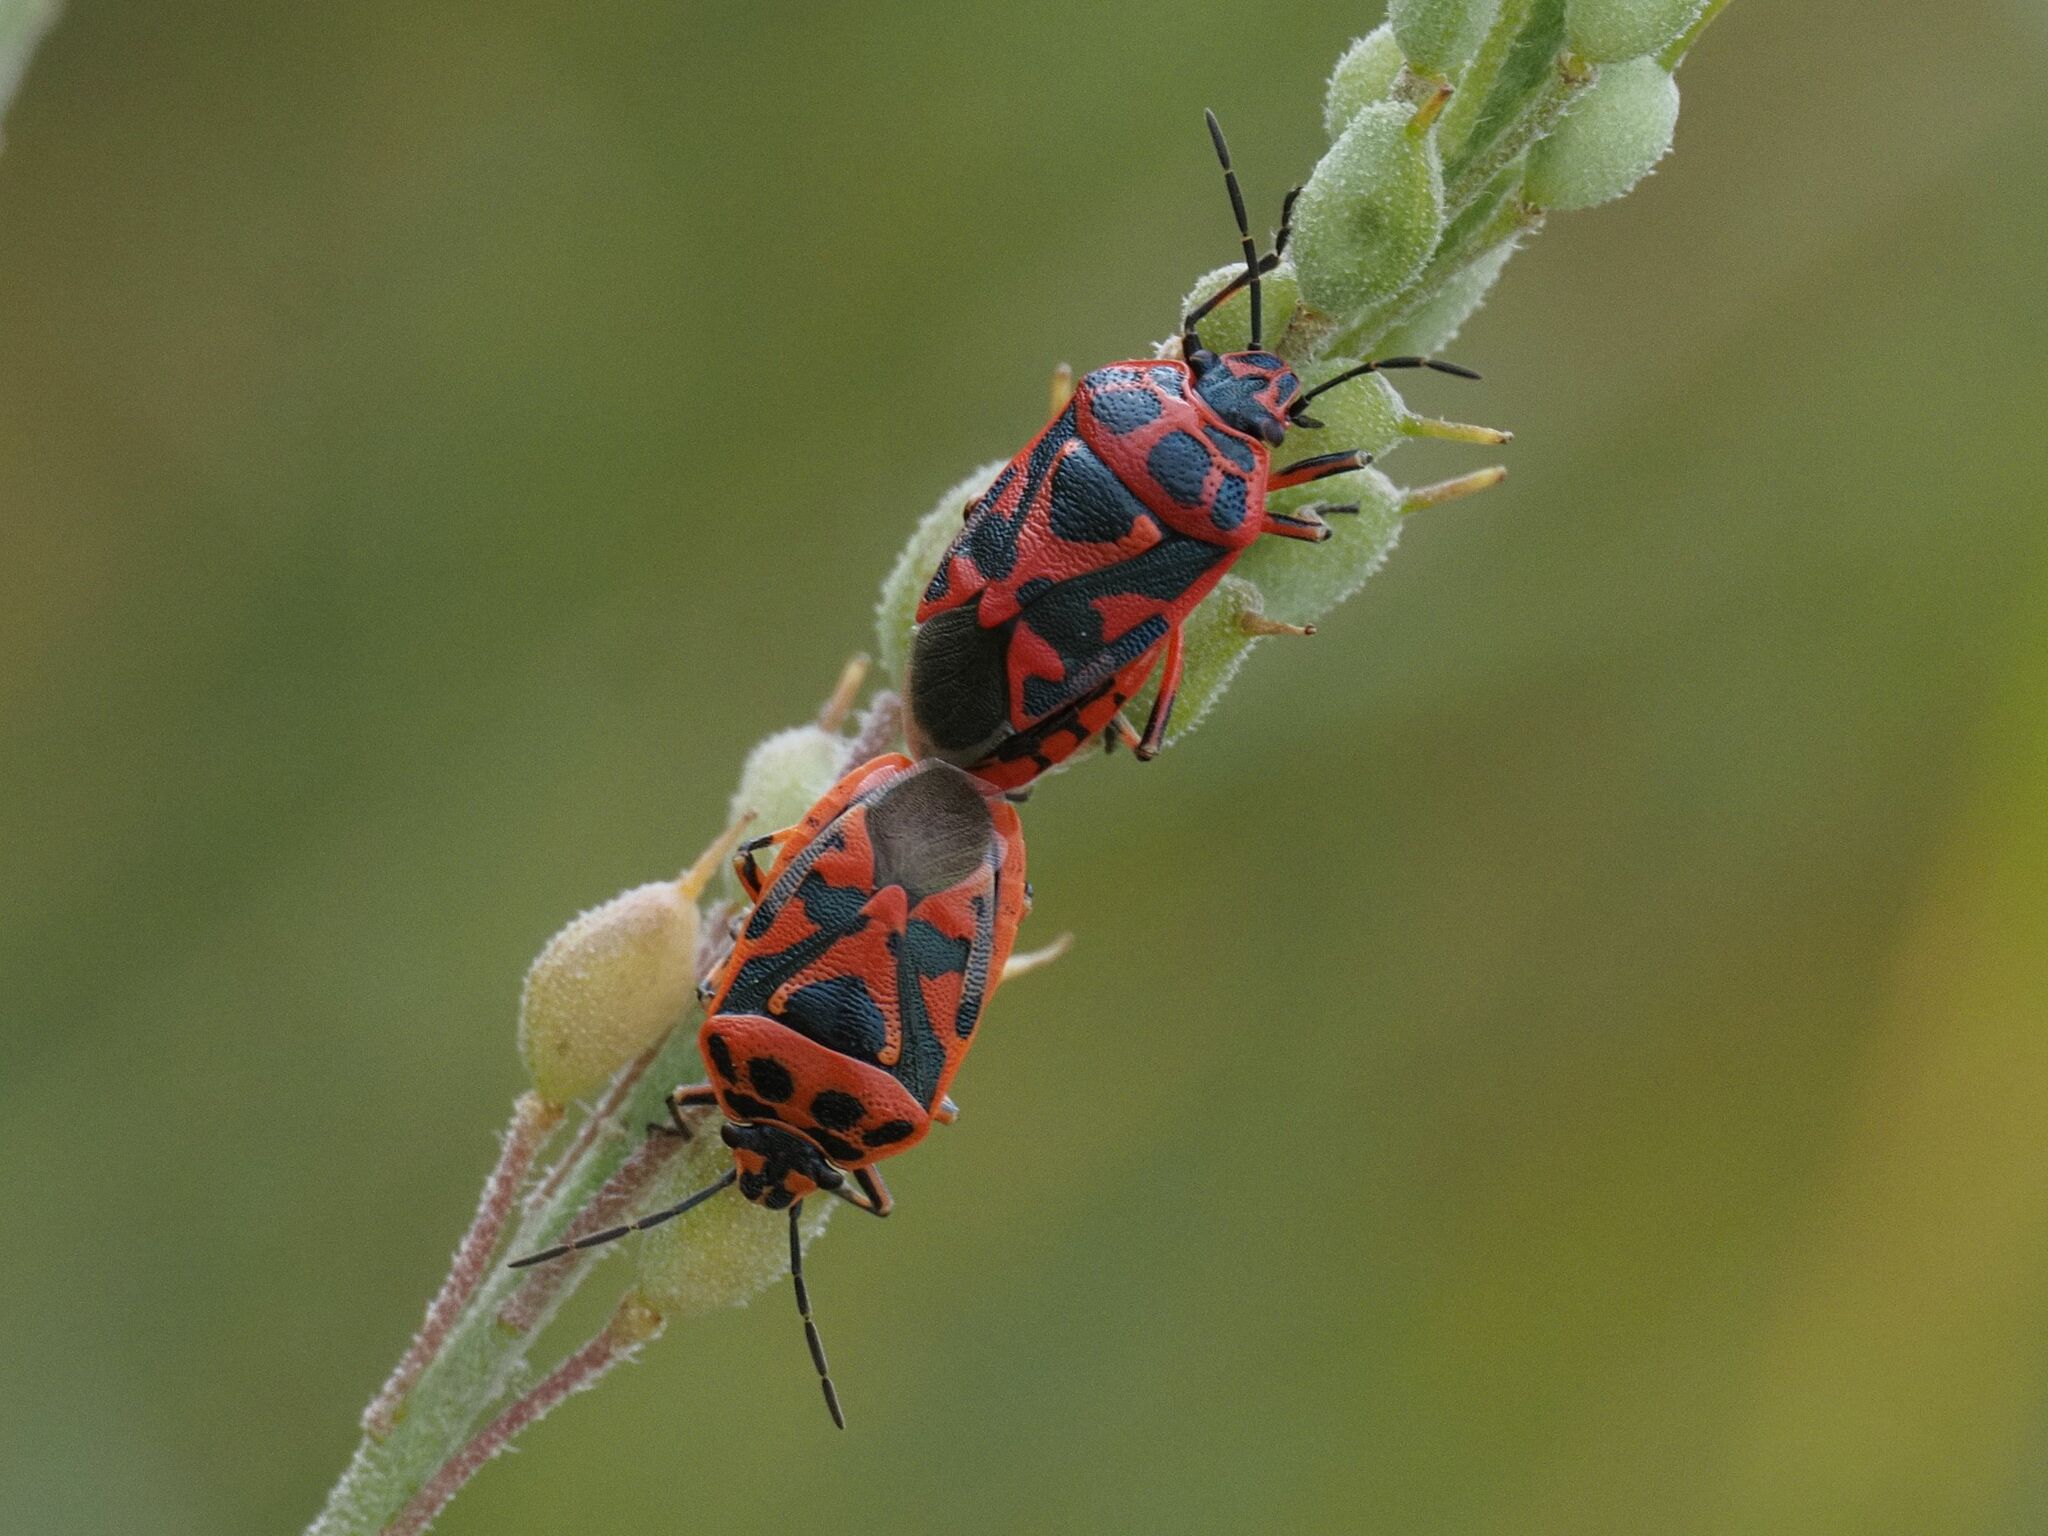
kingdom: Animalia
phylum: Arthropoda
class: Insecta
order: Hemiptera
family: Pentatomidae
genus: Eurydema
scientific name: Eurydema ornata
